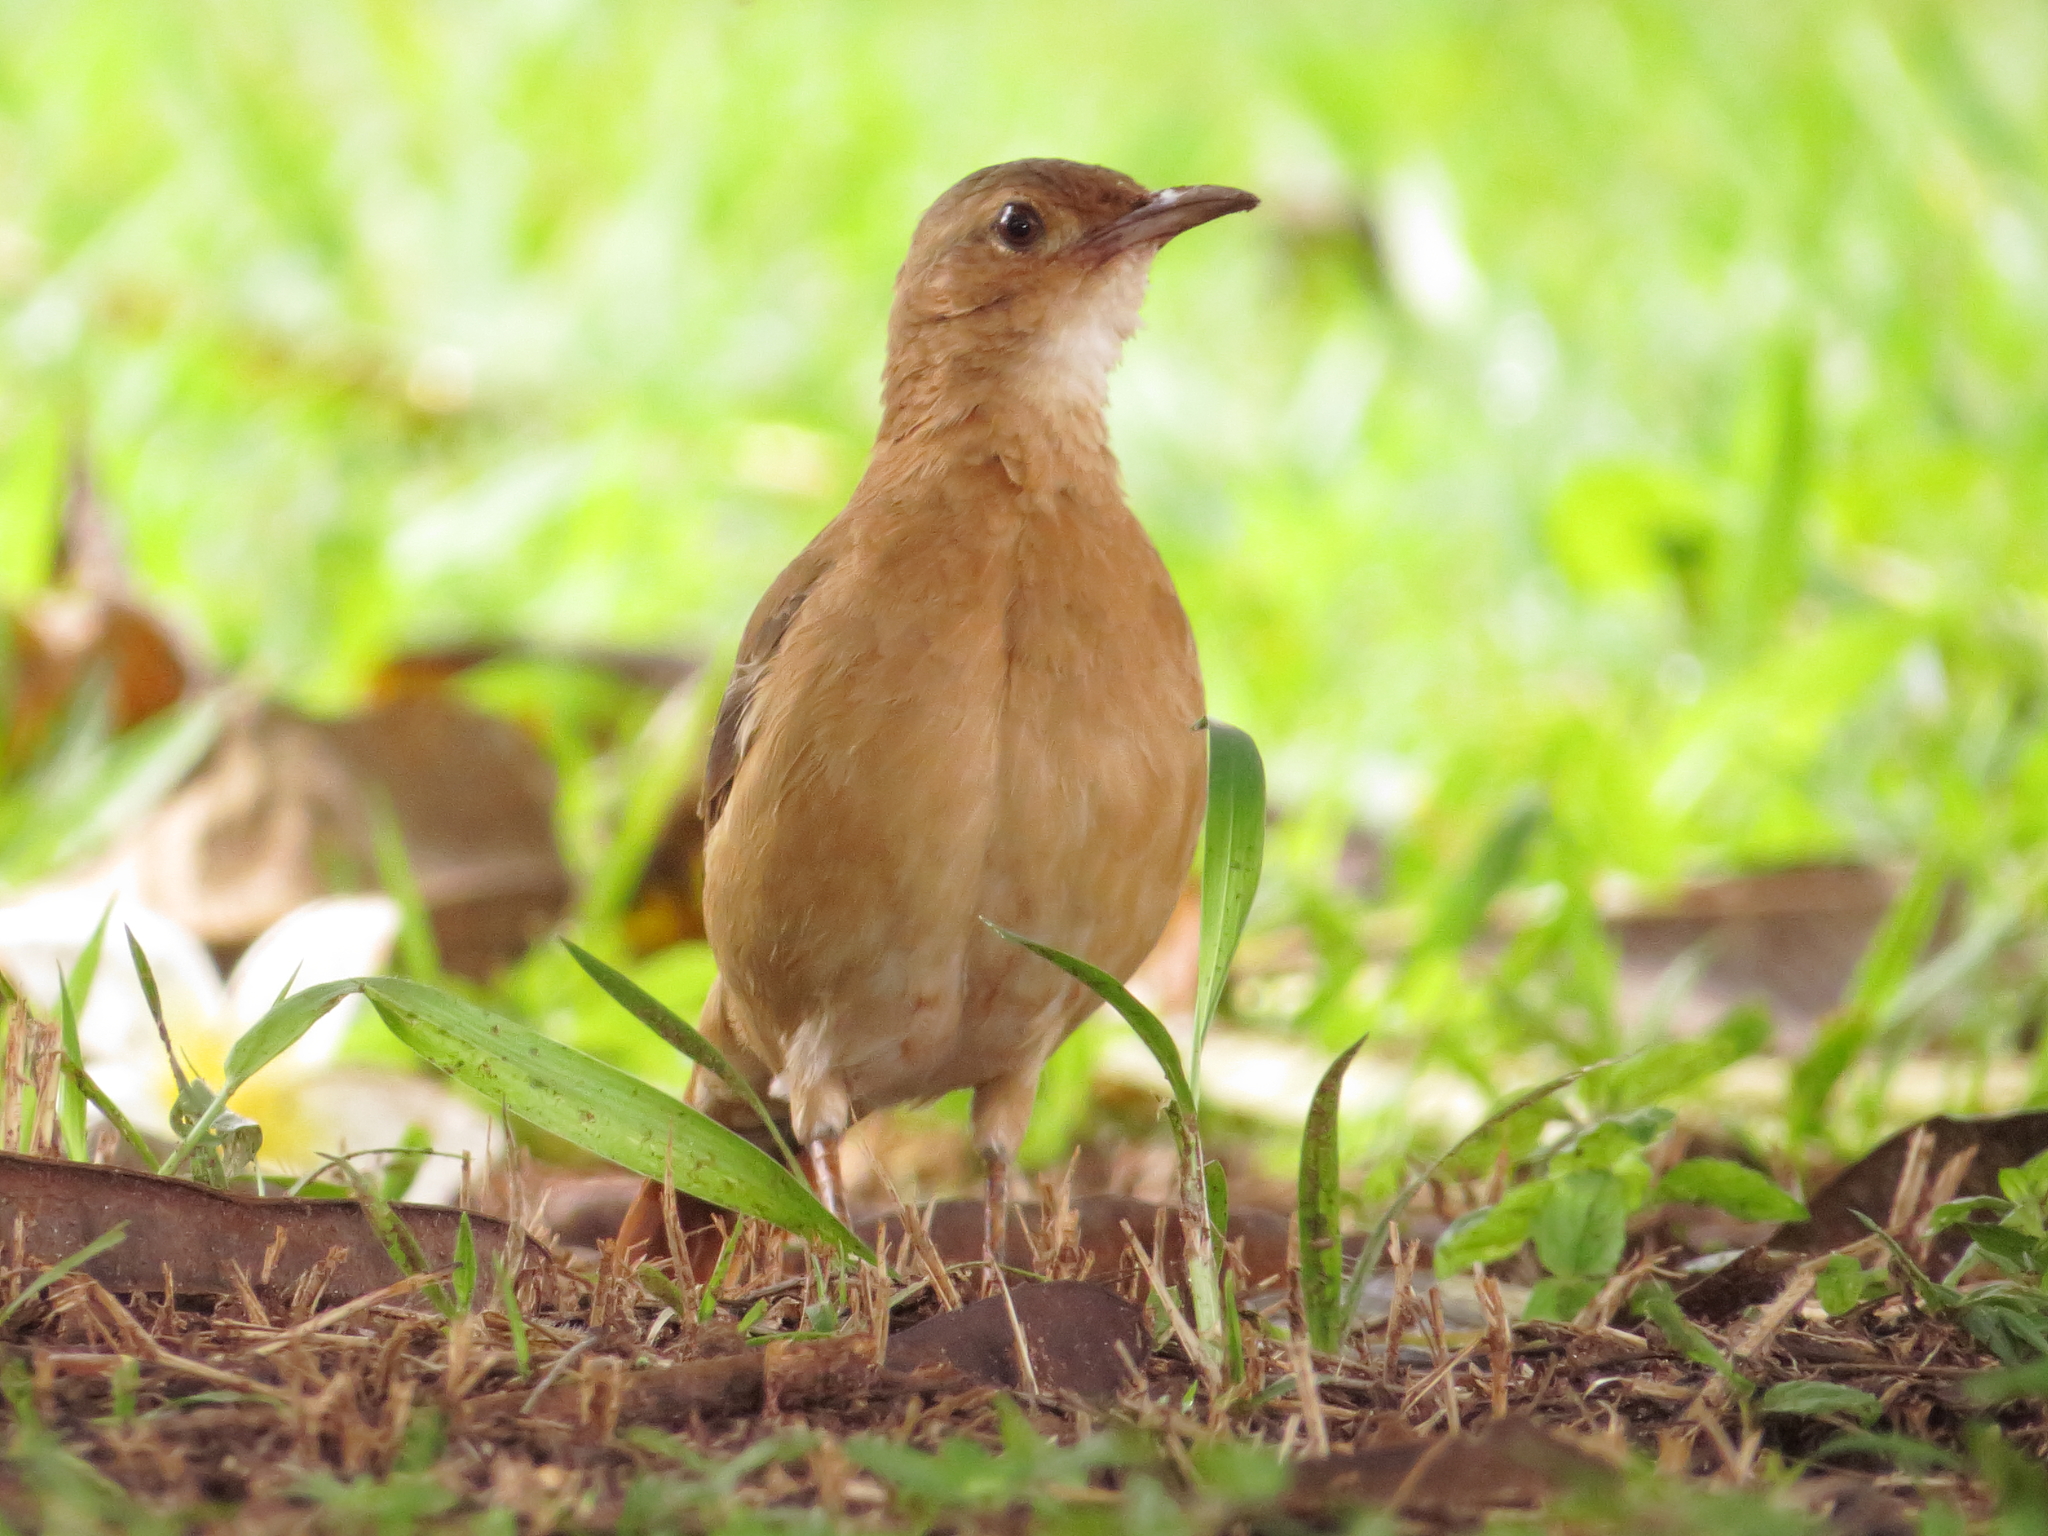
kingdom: Animalia
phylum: Chordata
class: Aves
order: Passeriformes
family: Furnariidae
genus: Furnarius
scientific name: Furnarius rufus
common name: Rufous hornero
